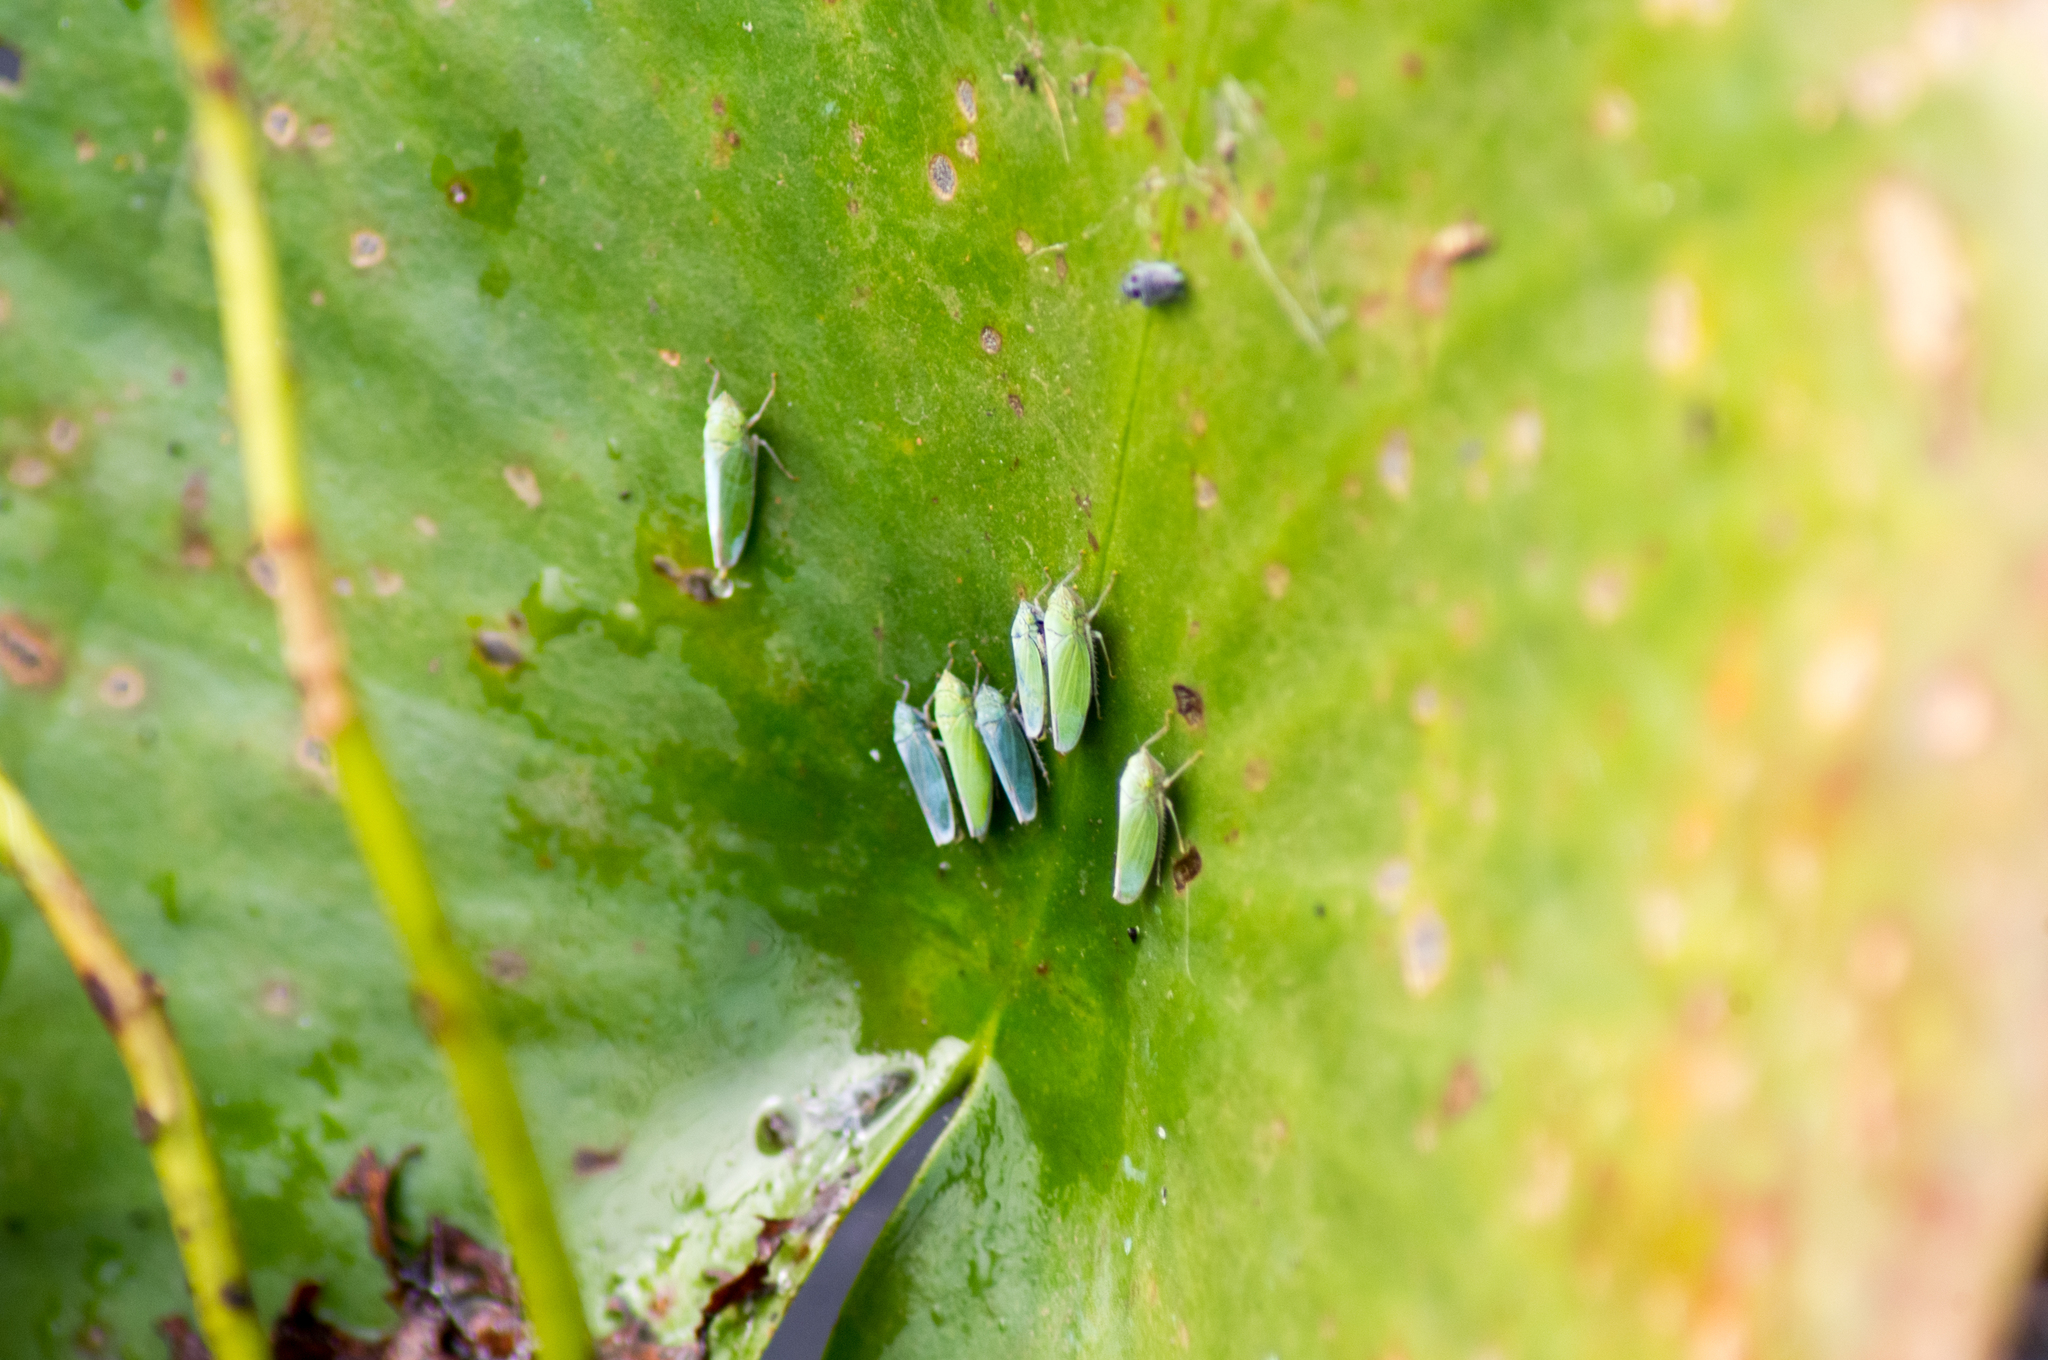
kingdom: Animalia
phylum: Arthropoda
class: Insecta
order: Hemiptera
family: Cicadellidae
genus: Draeculacephala
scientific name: Draeculacephala inscripta
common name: Leafhopper
